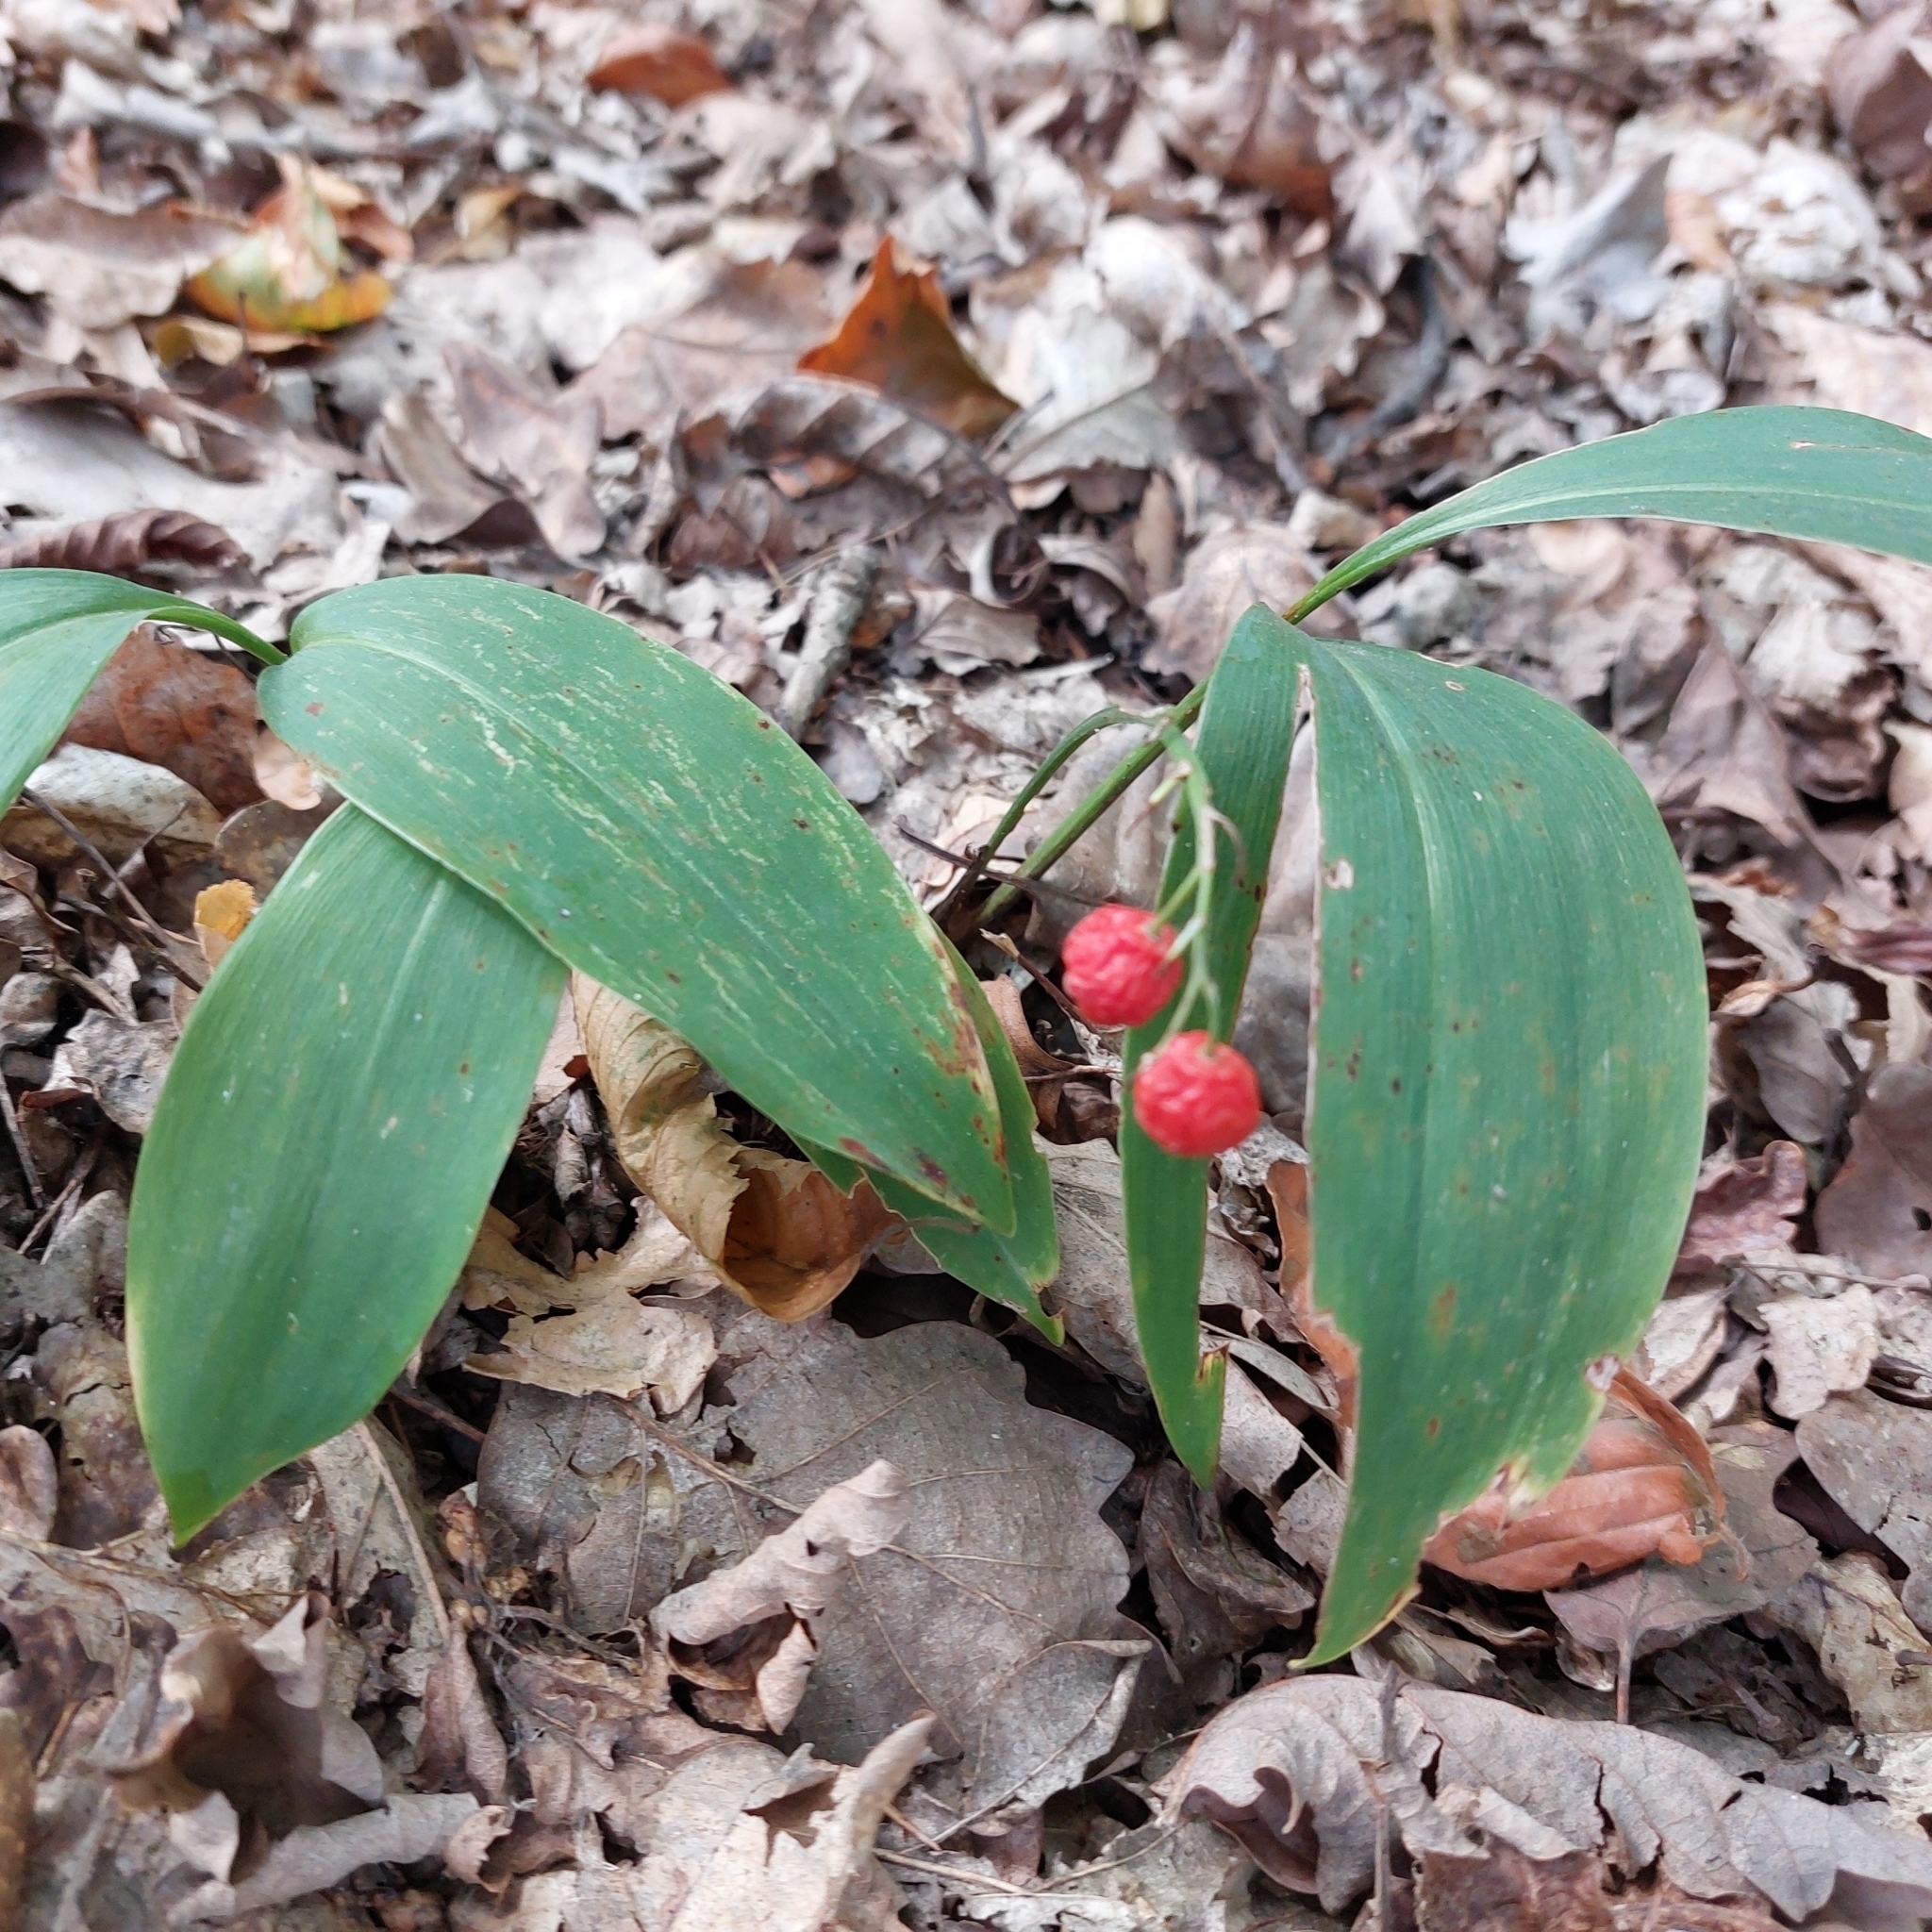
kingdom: Plantae
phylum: Tracheophyta
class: Liliopsida
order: Asparagales
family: Asparagaceae
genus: Convallaria
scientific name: Convallaria majalis
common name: Lily-of-the-valley
